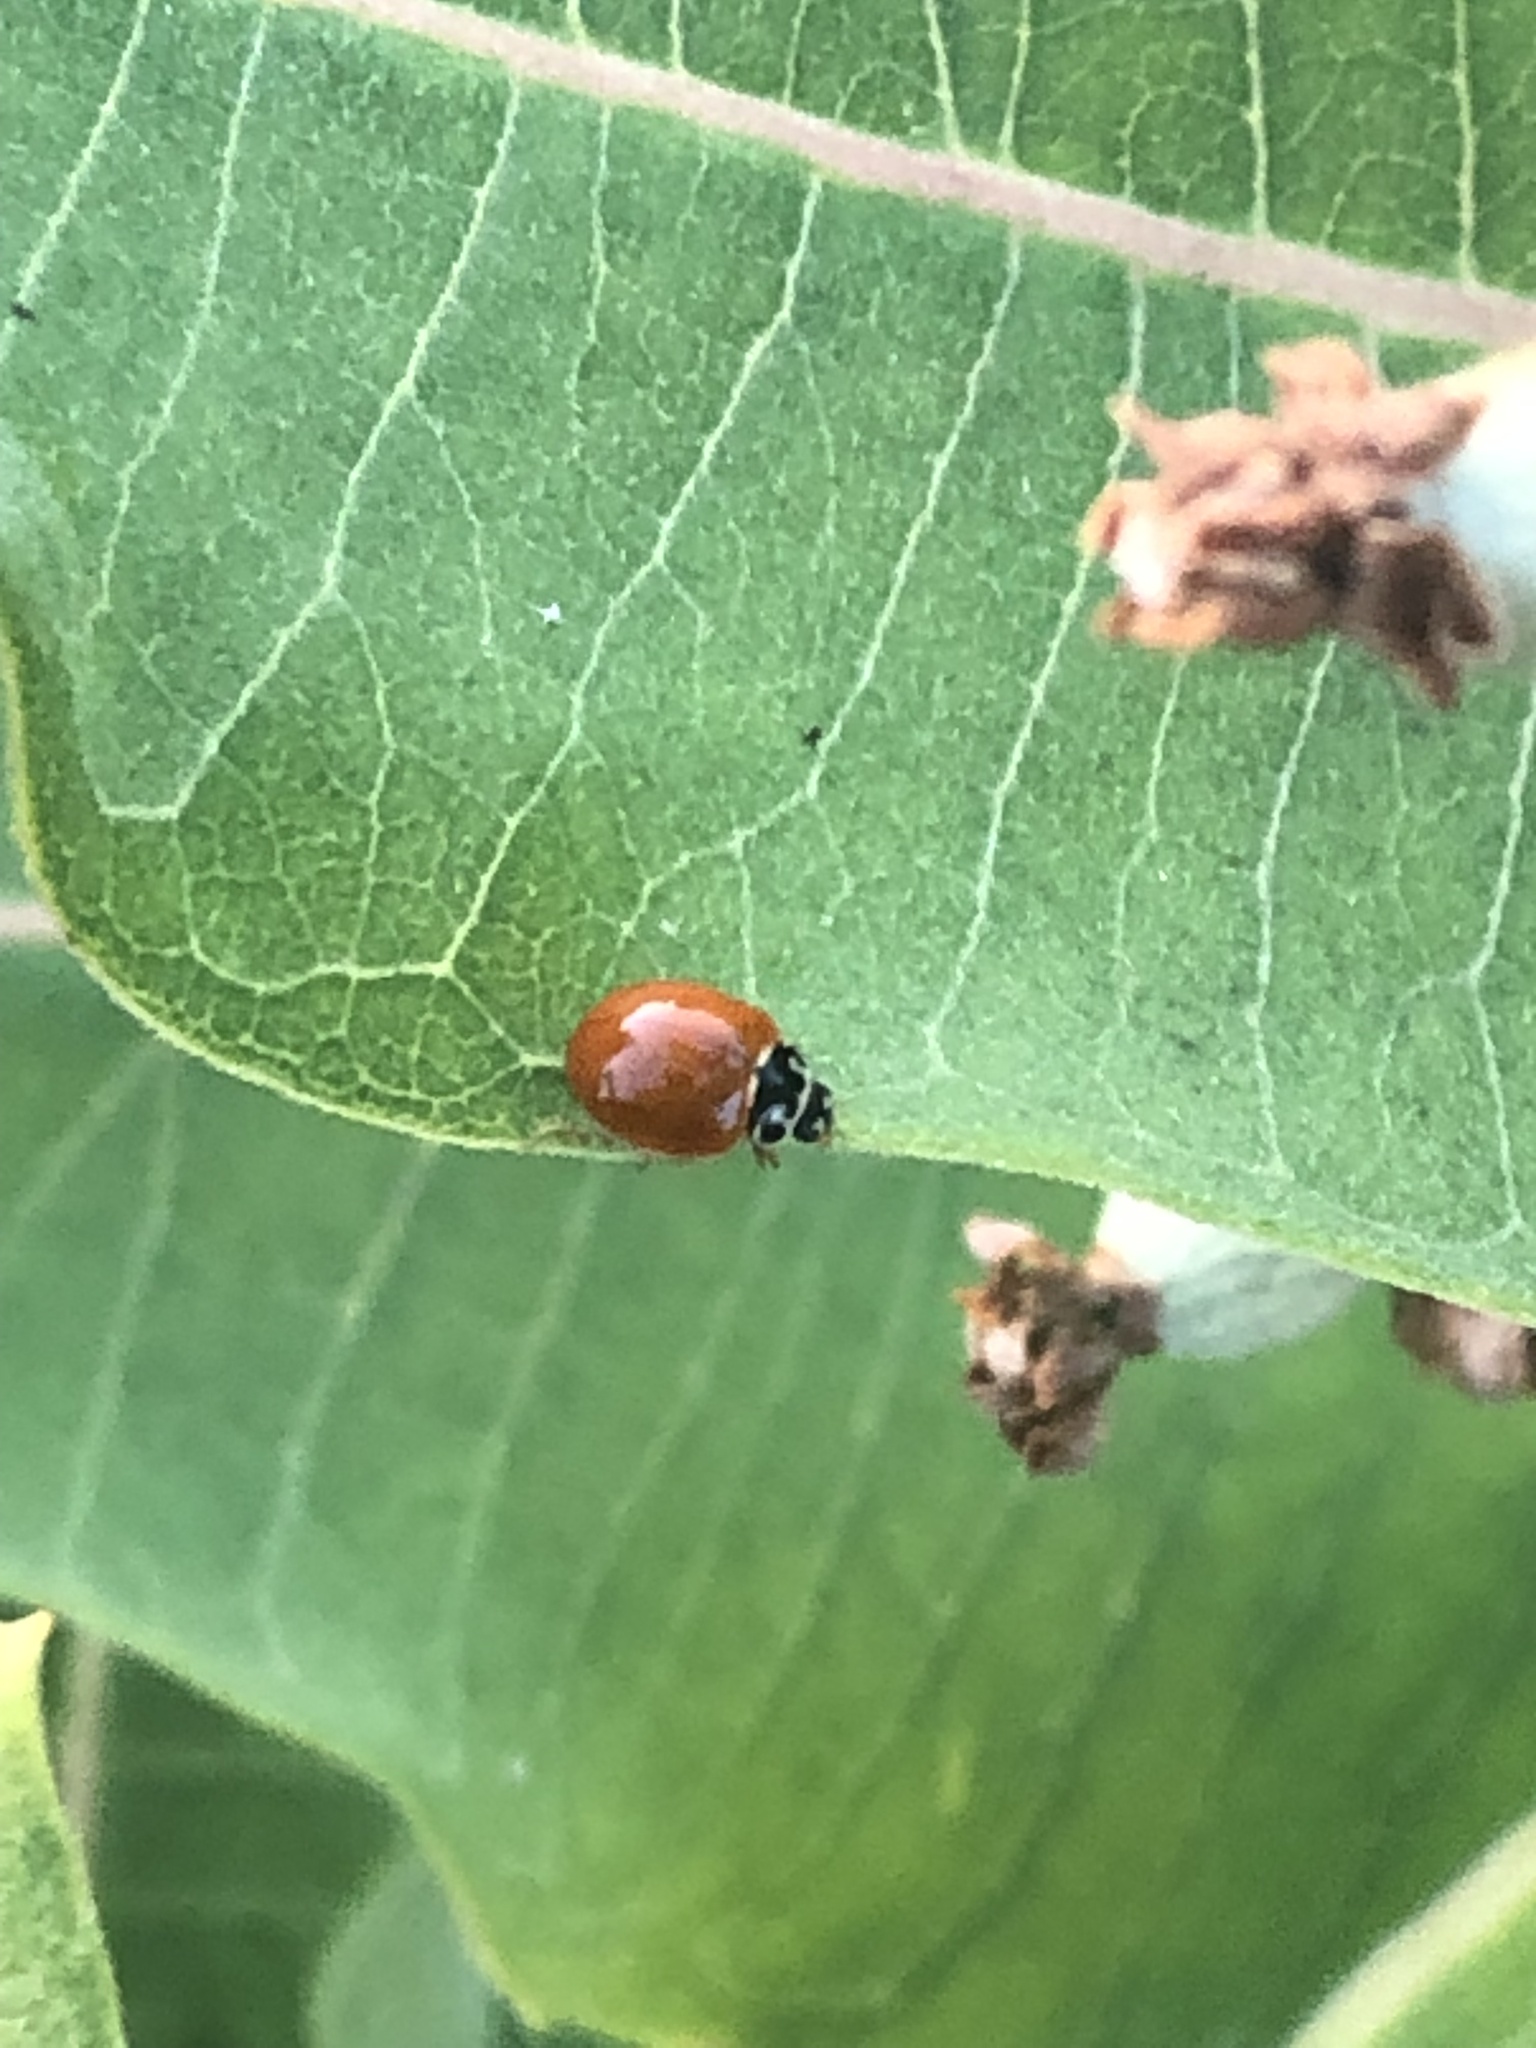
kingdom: Animalia
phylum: Arthropoda
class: Insecta
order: Coleoptera
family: Coccinellidae
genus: Cycloneda
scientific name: Cycloneda munda
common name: Polished lady beetle
